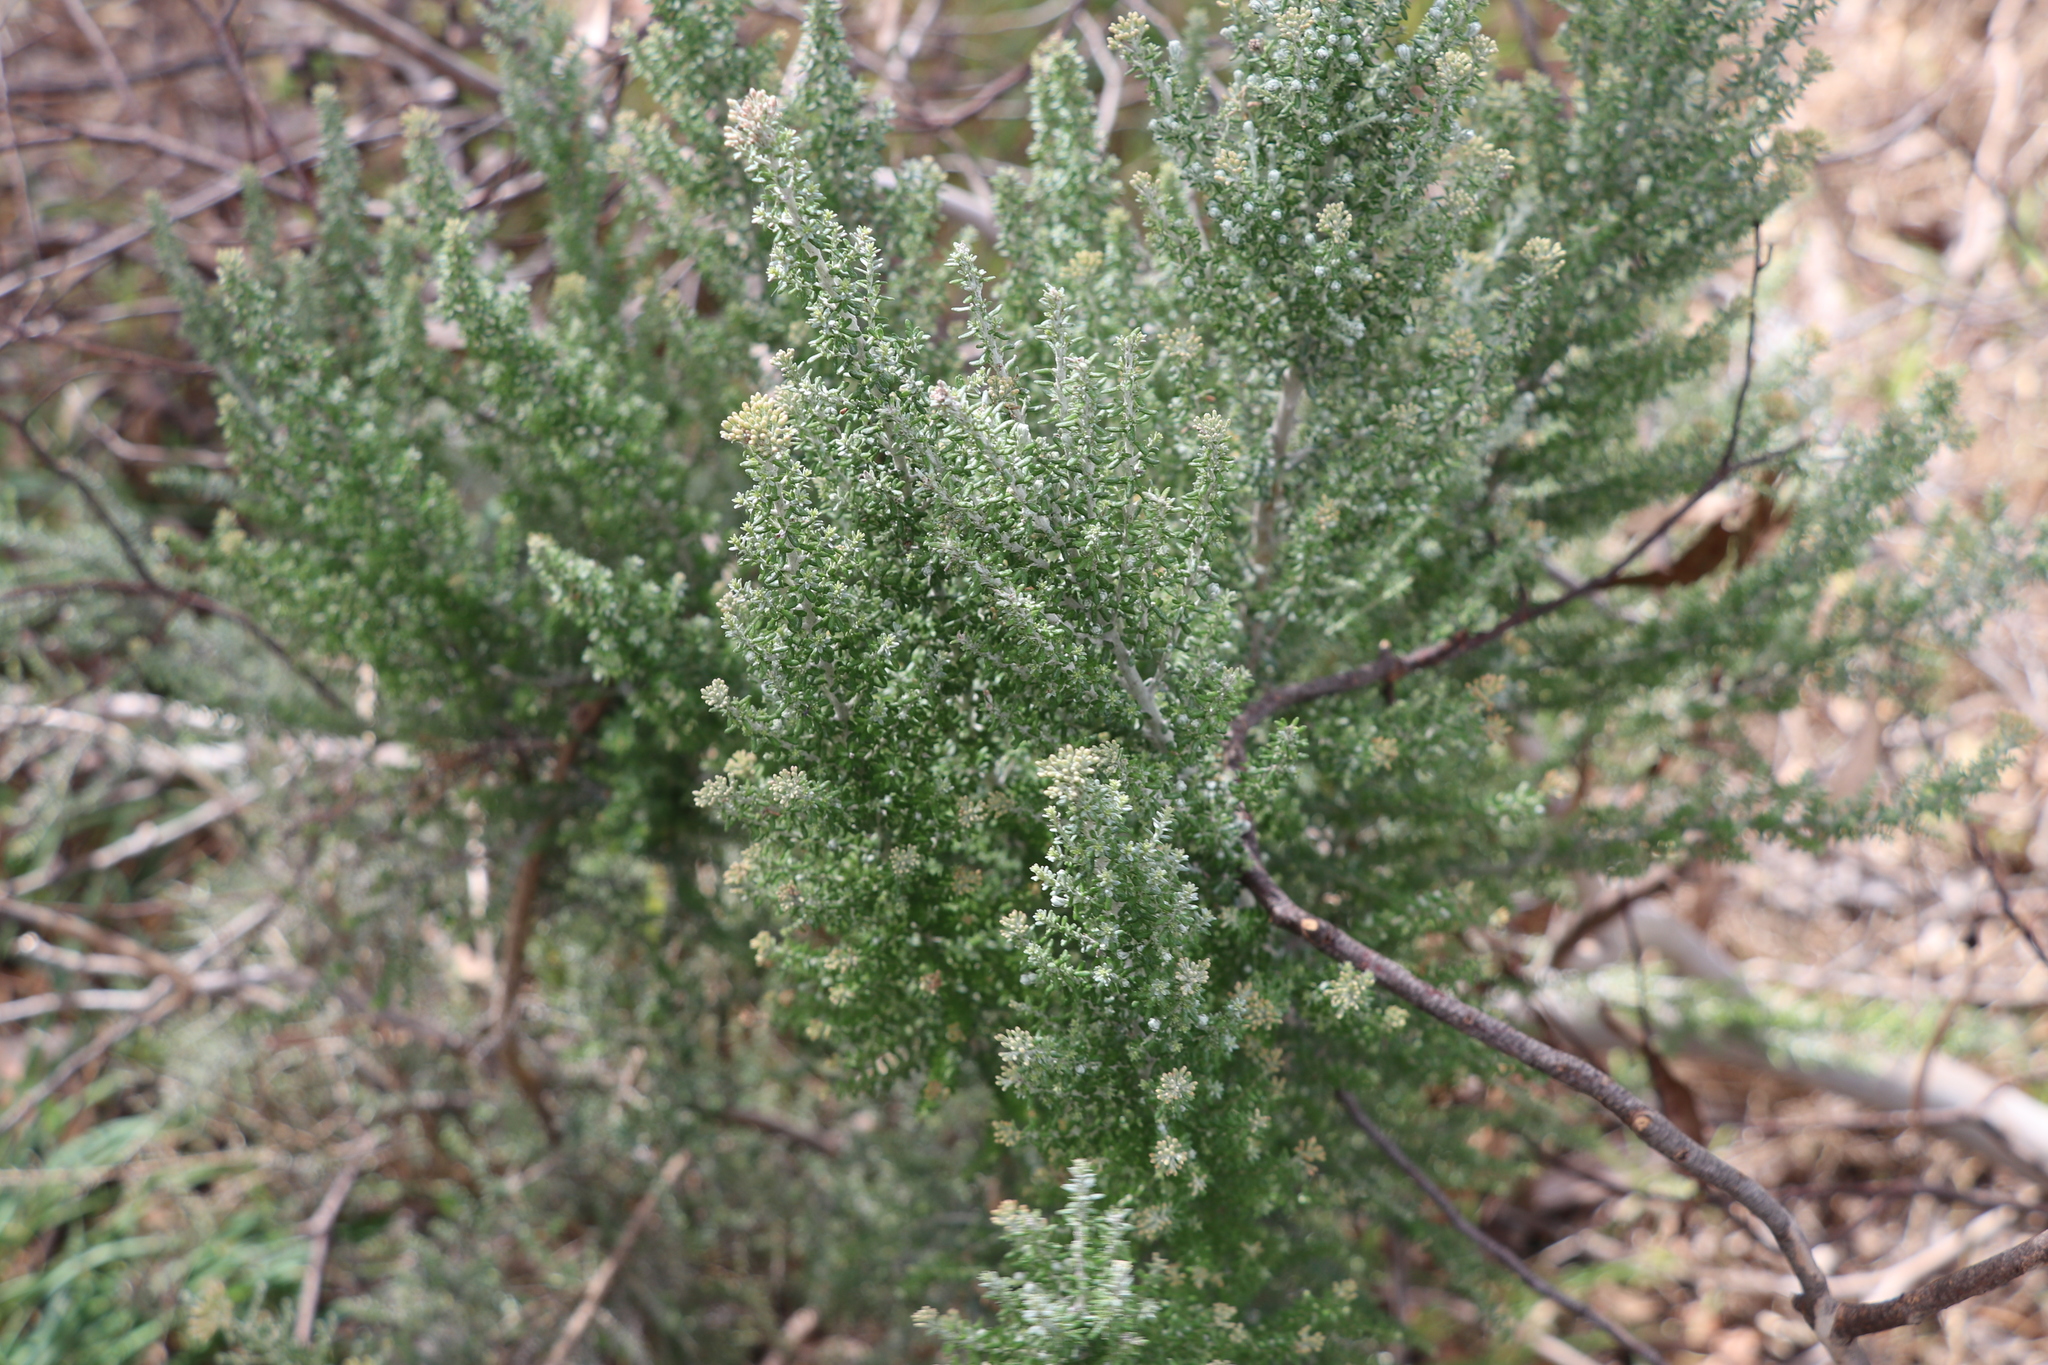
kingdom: Plantae
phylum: Tracheophyta
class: Magnoliopsida
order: Asterales
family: Asteraceae
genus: Ozothamnus
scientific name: Ozothamnus leptophyllus
